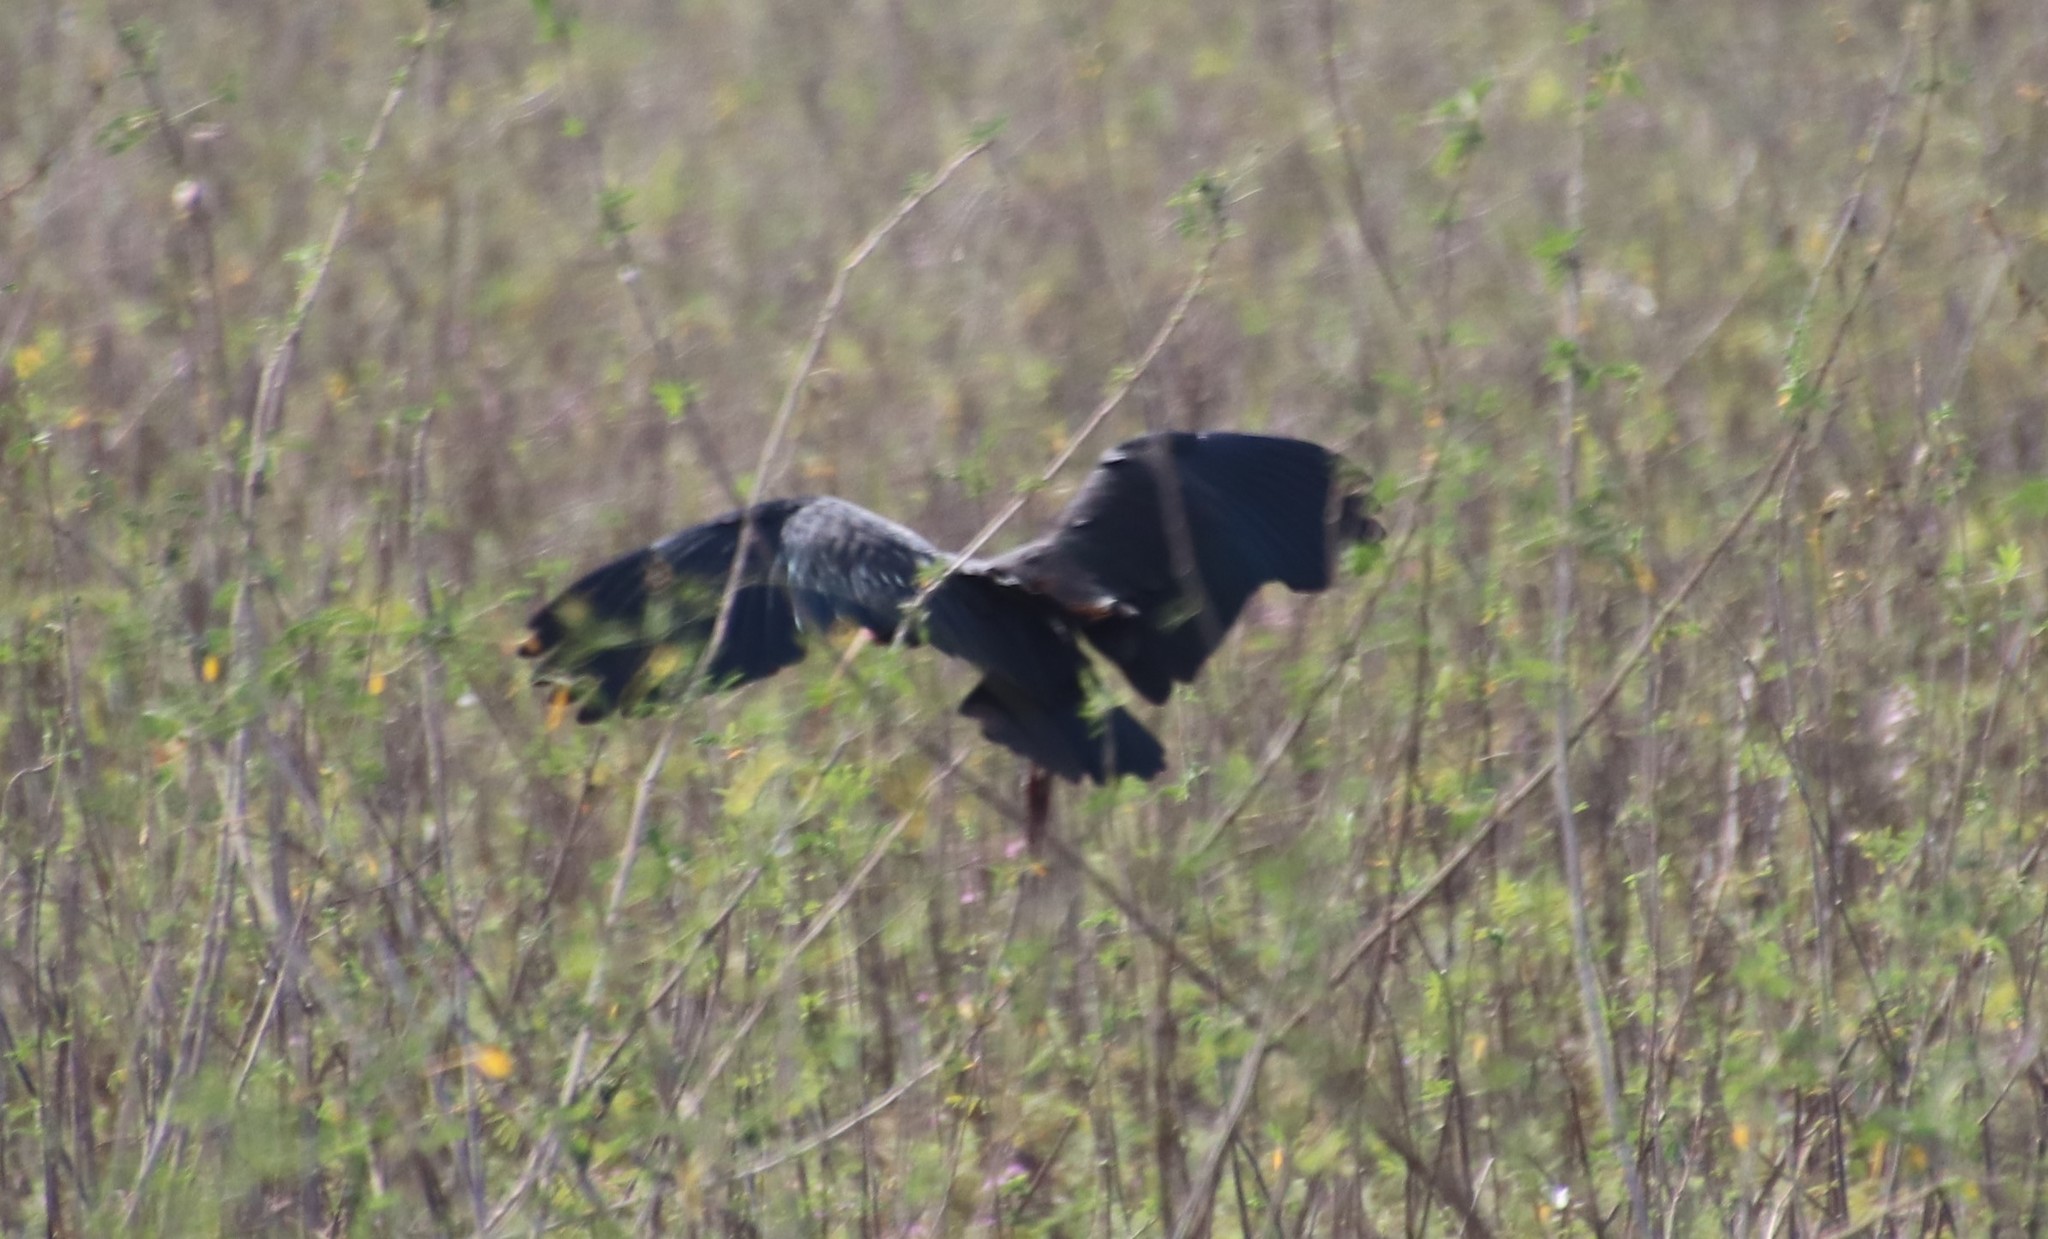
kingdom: Animalia
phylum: Chordata
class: Aves
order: Pelecaniformes
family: Threskiornithidae
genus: Phimosus
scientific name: Phimosus infuscatus
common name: Bare-faced ibis
